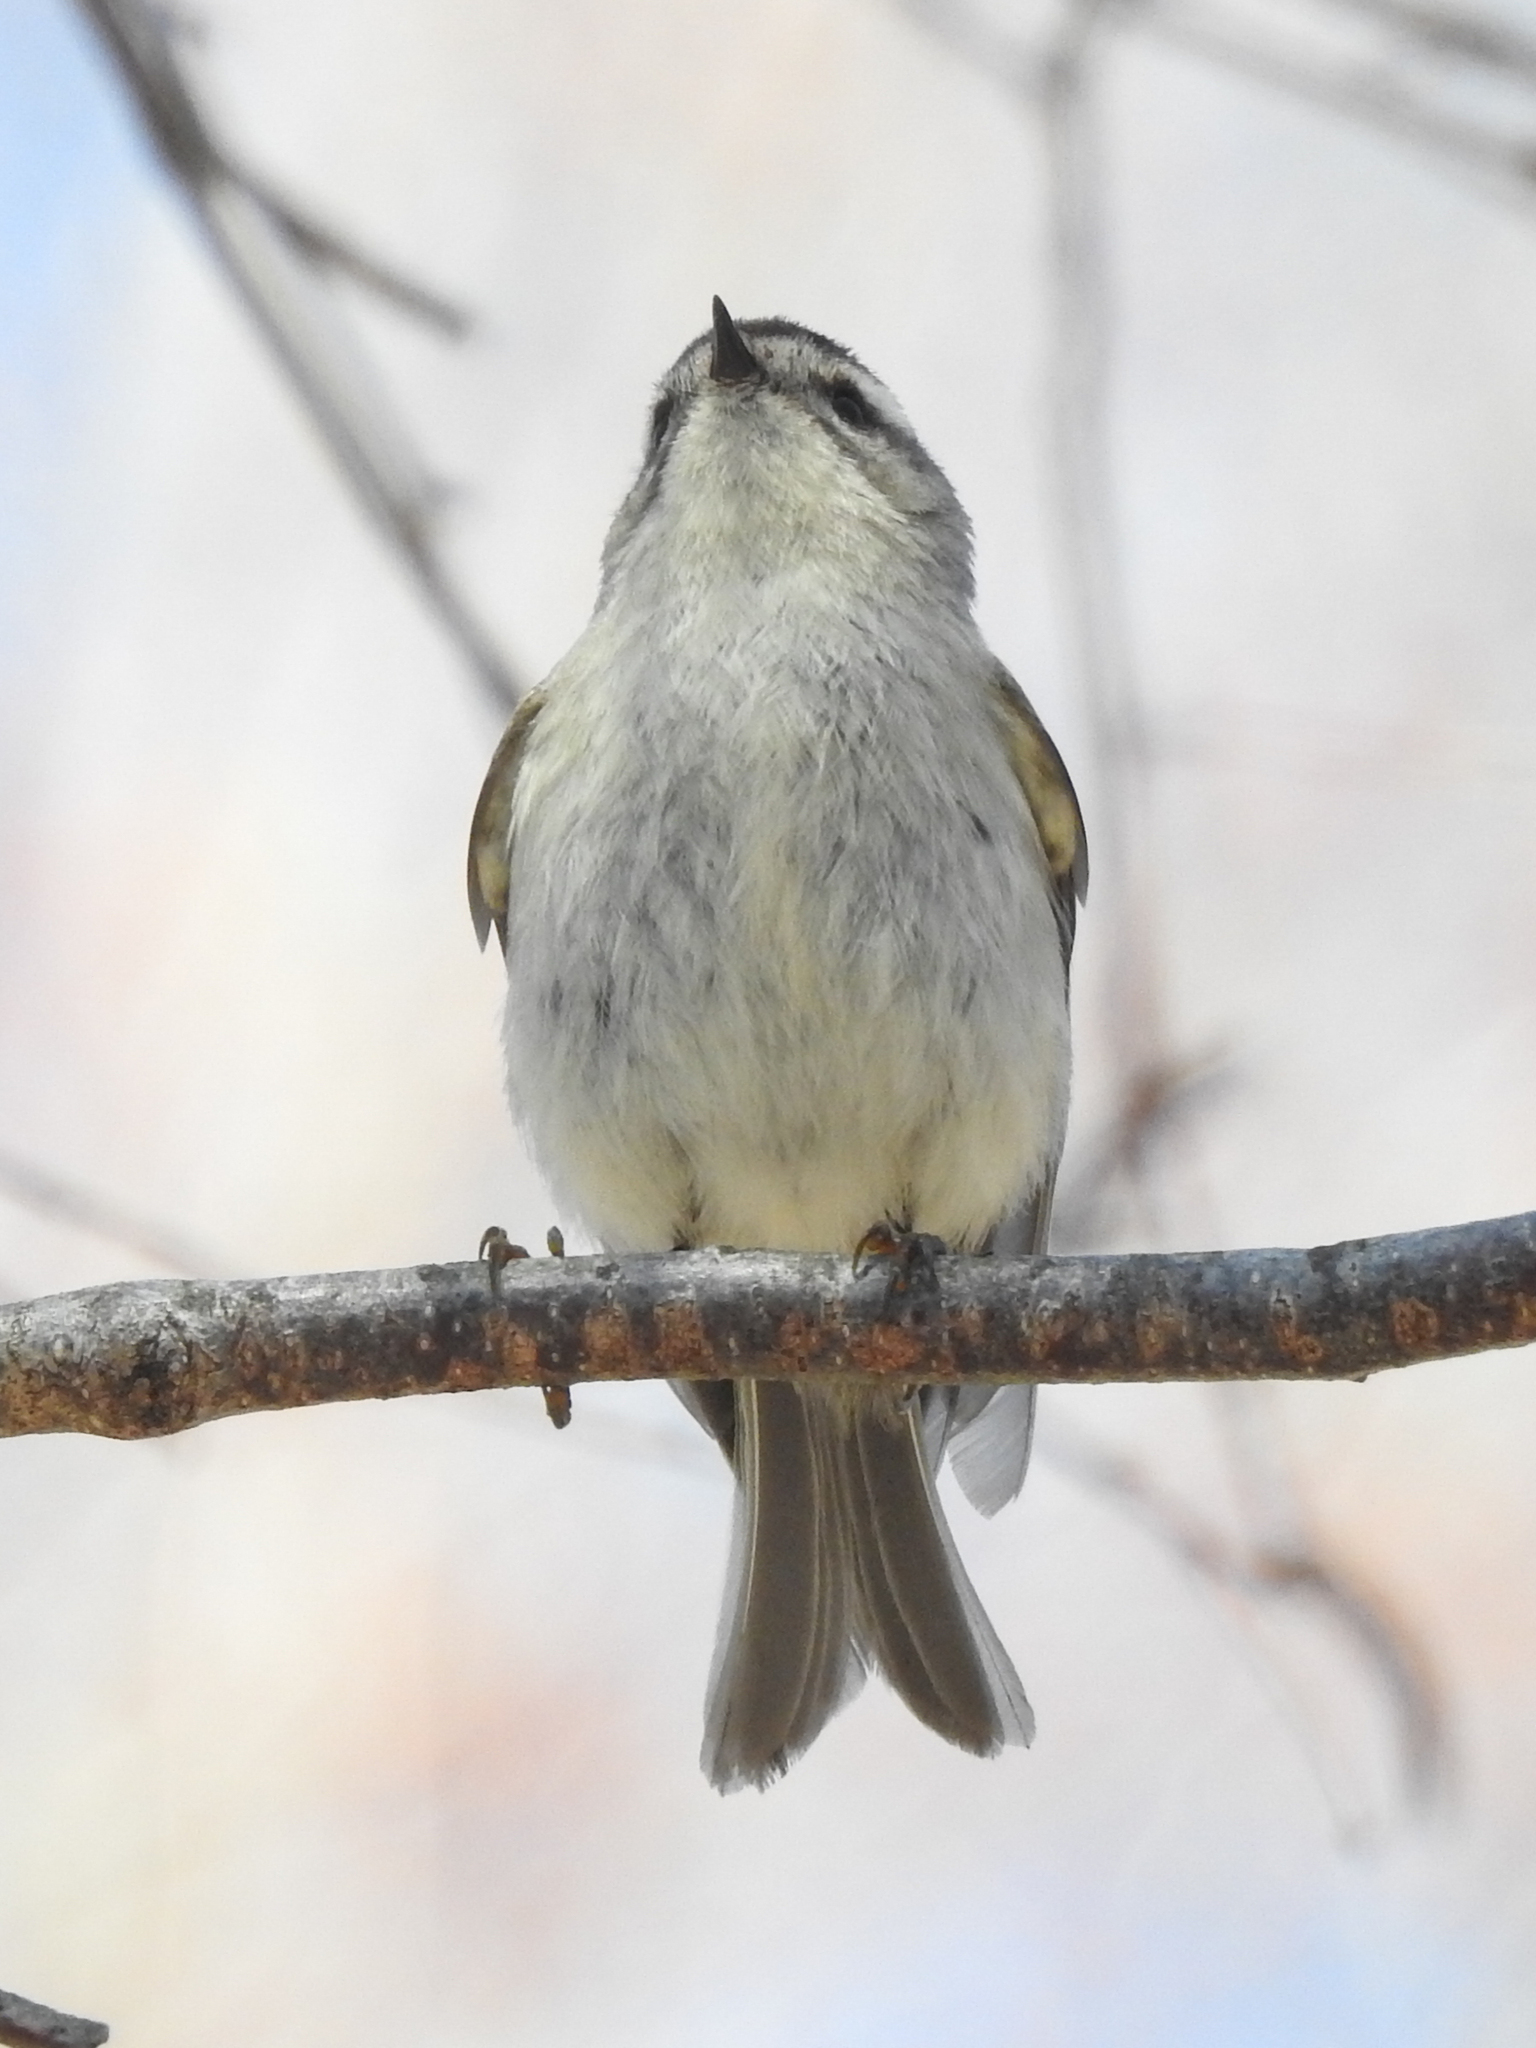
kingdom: Animalia
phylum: Chordata
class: Aves
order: Passeriformes
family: Regulidae
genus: Regulus
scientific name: Regulus satrapa
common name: Golden-crowned kinglet
